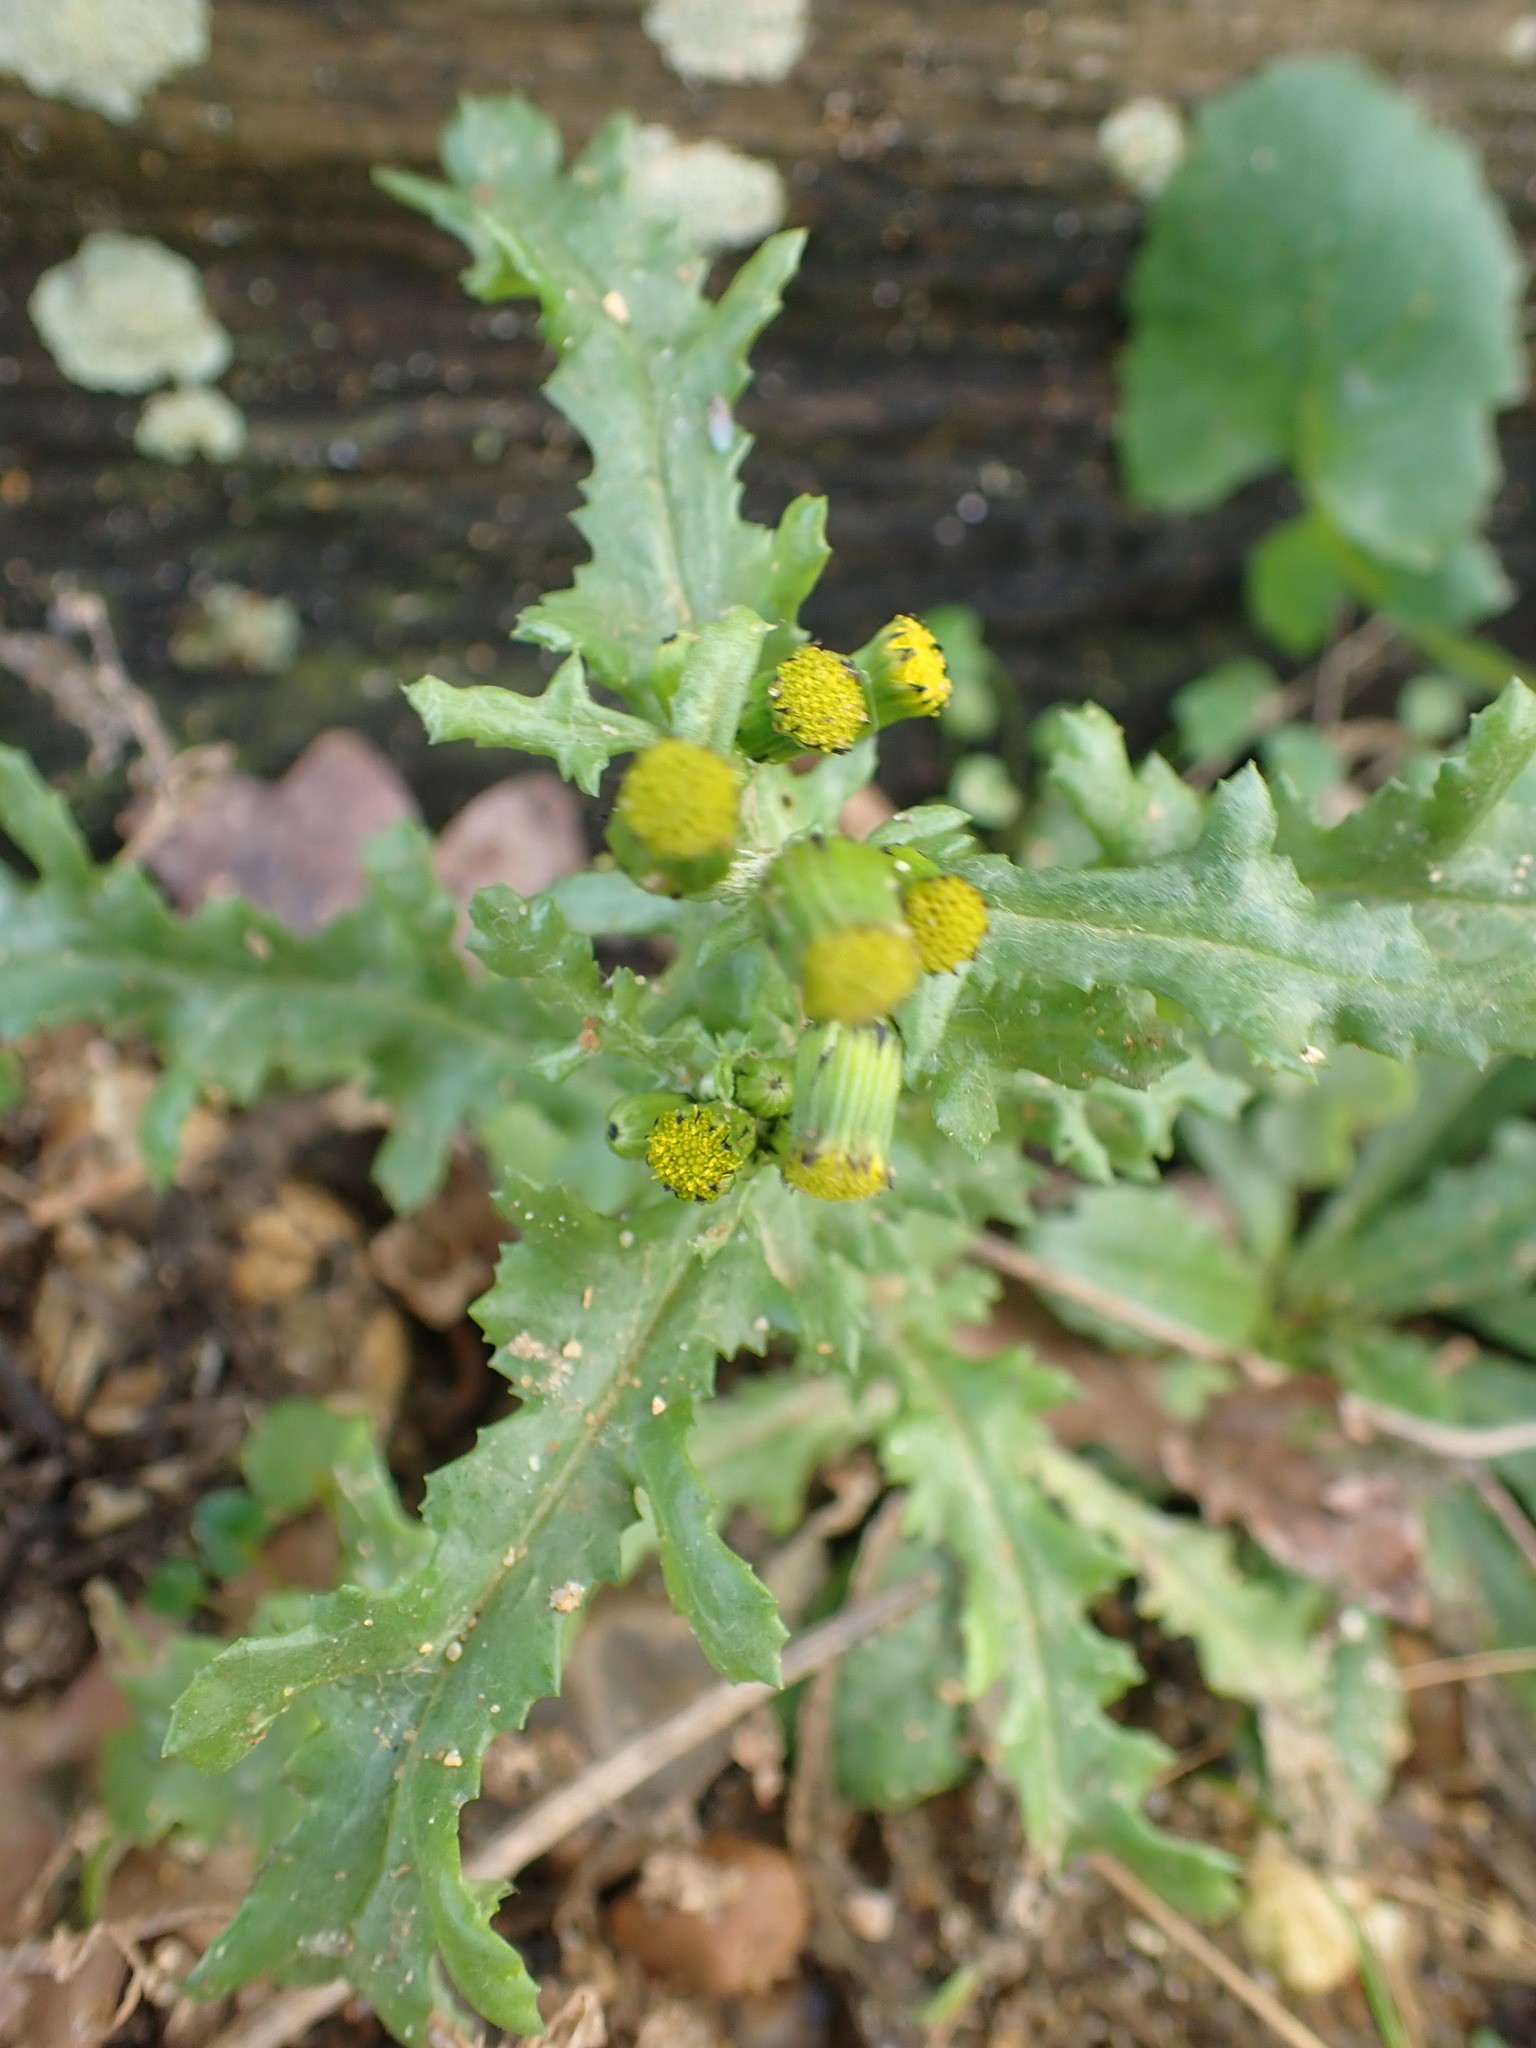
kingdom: Plantae
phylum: Tracheophyta
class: Magnoliopsida
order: Asterales
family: Asteraceae
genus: Senecio
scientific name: Senecio vulgaris
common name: Old-man-in-the-spring
